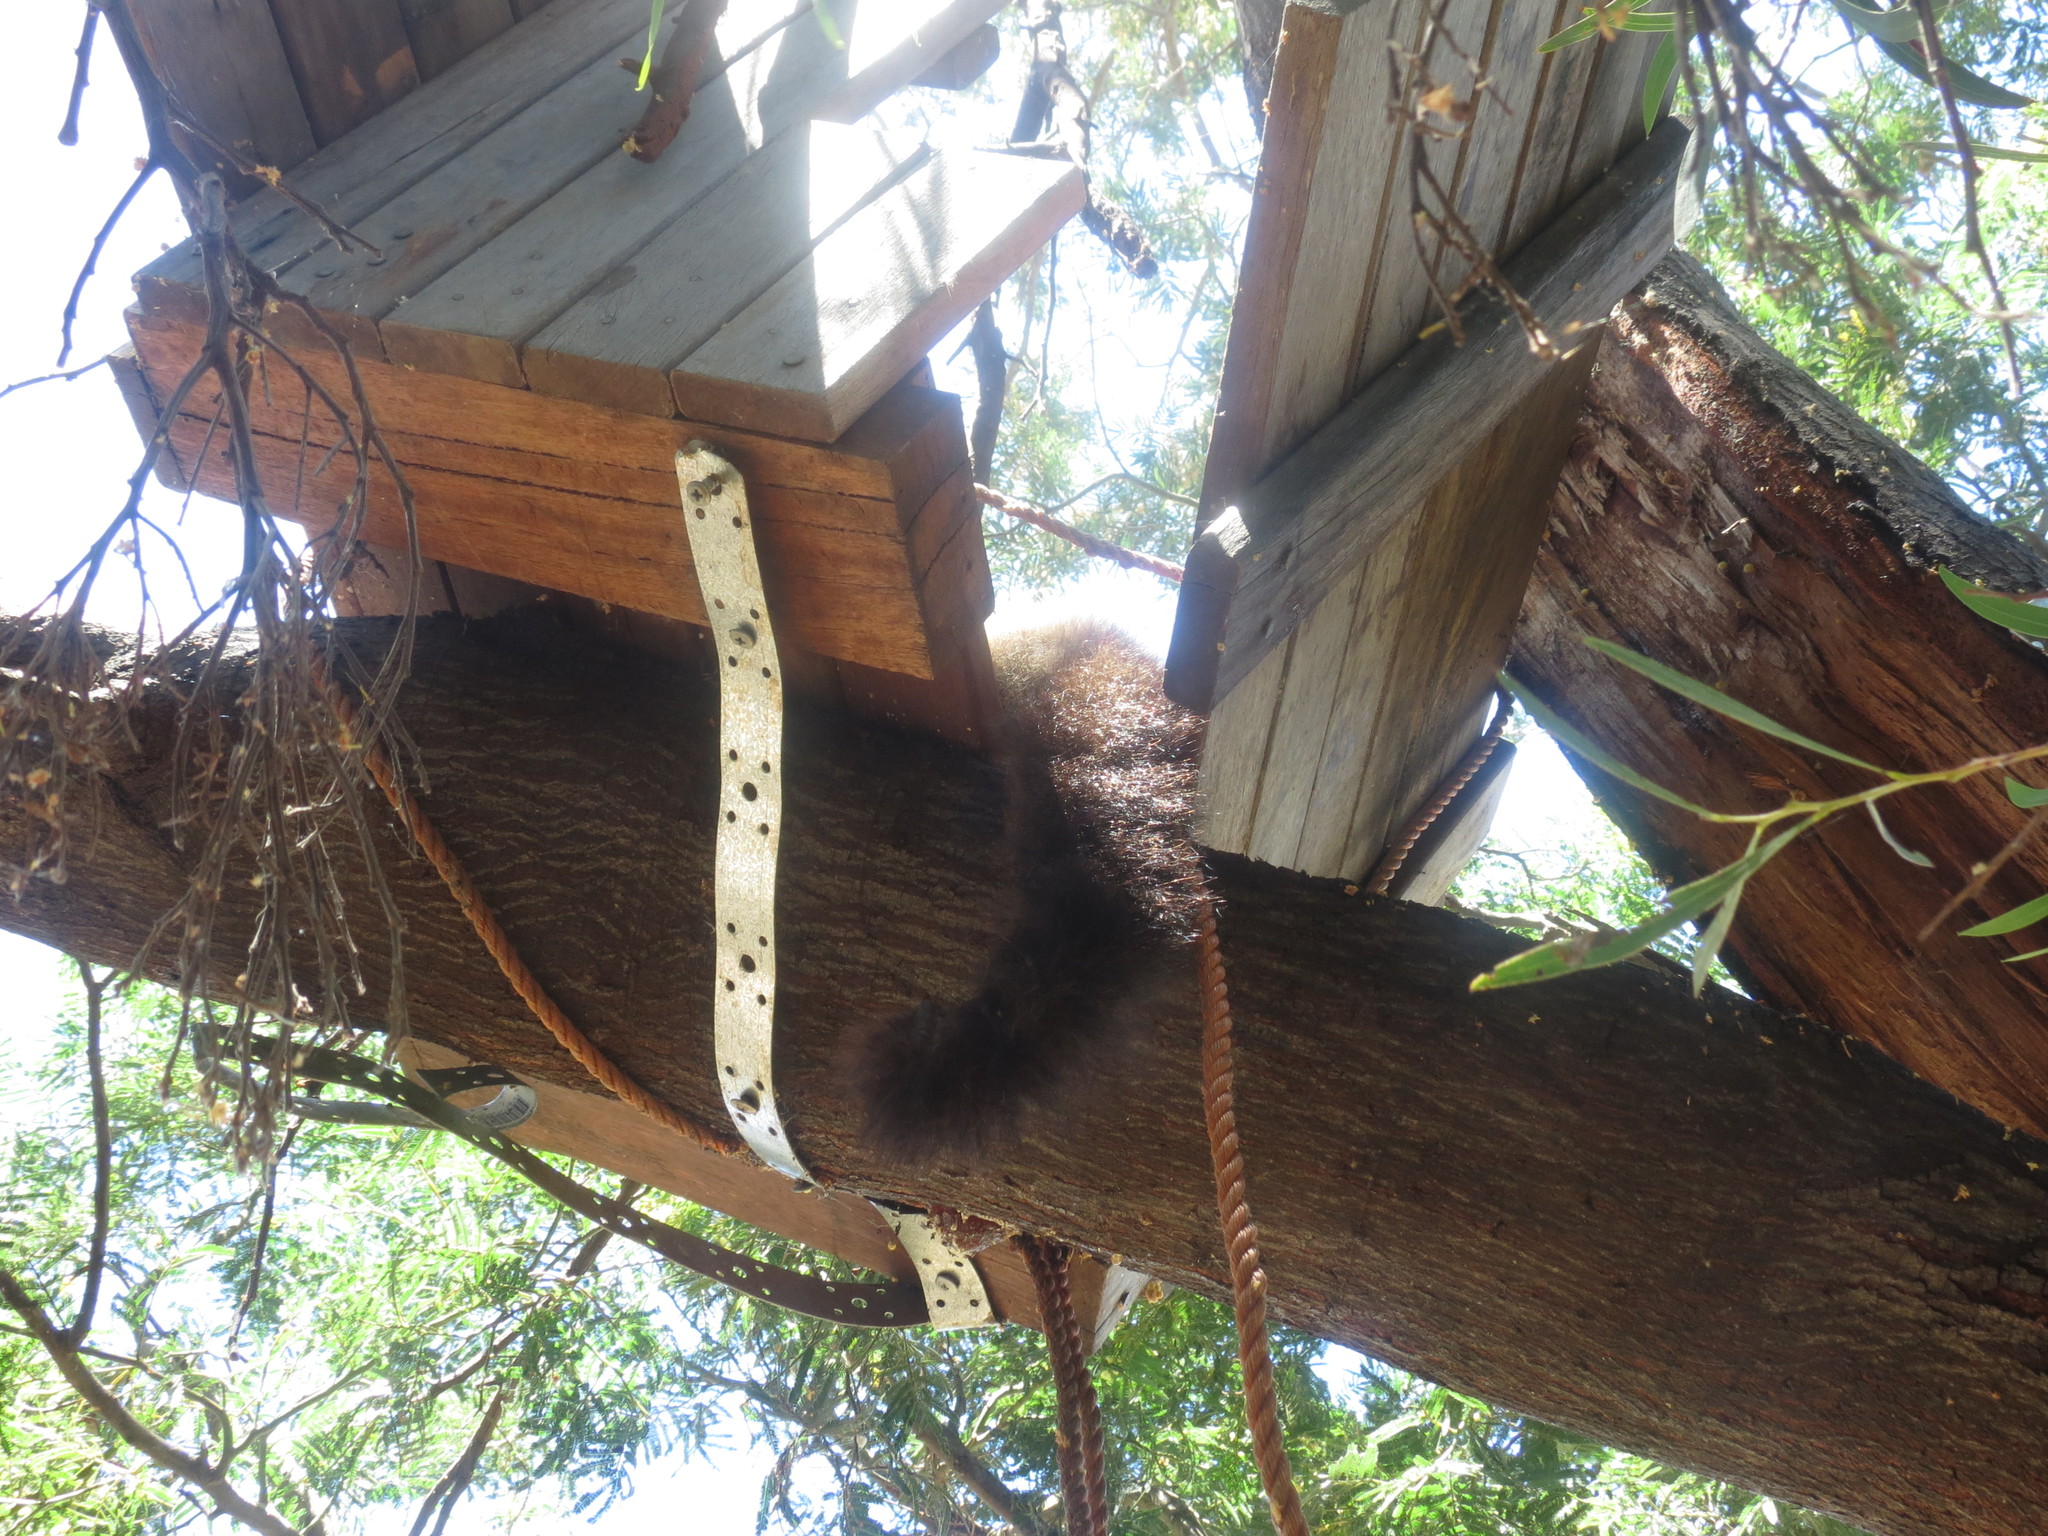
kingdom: Animalia
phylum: Chordata
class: Mammalia
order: Diprotodontia
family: Phalangeridae
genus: Trichosurus
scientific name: Trichosurus vulpecula
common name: Common brushtail
